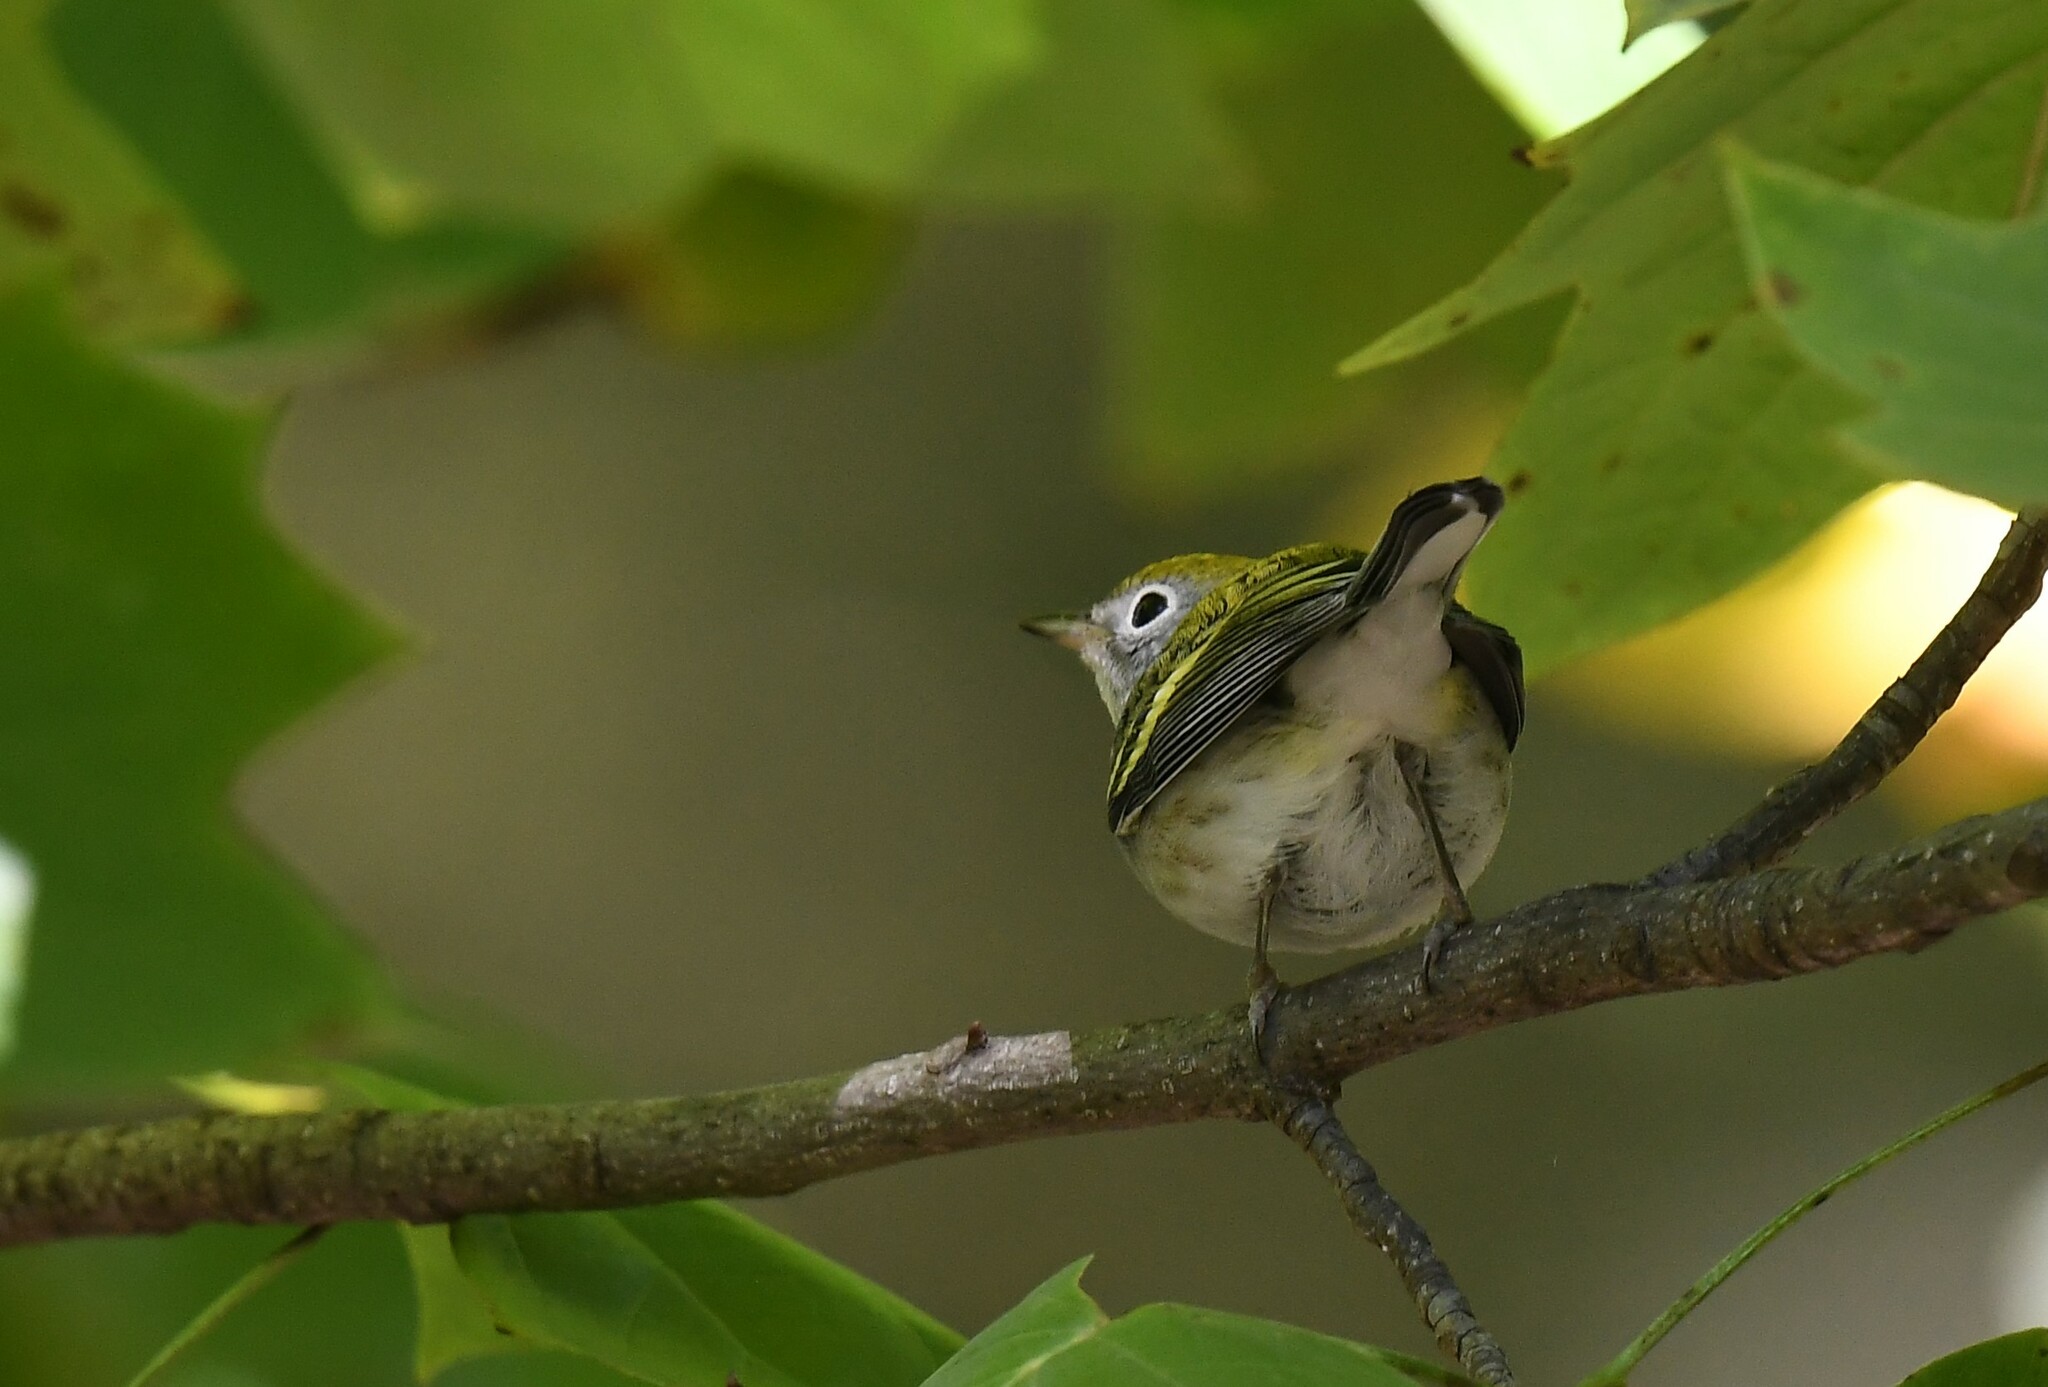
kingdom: Animalia
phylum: Chordata
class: Aves
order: Passeriformes
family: Parulidae
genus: Setophaga
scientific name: Setophaga pensylvanica
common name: Chestnut-sided warbler
